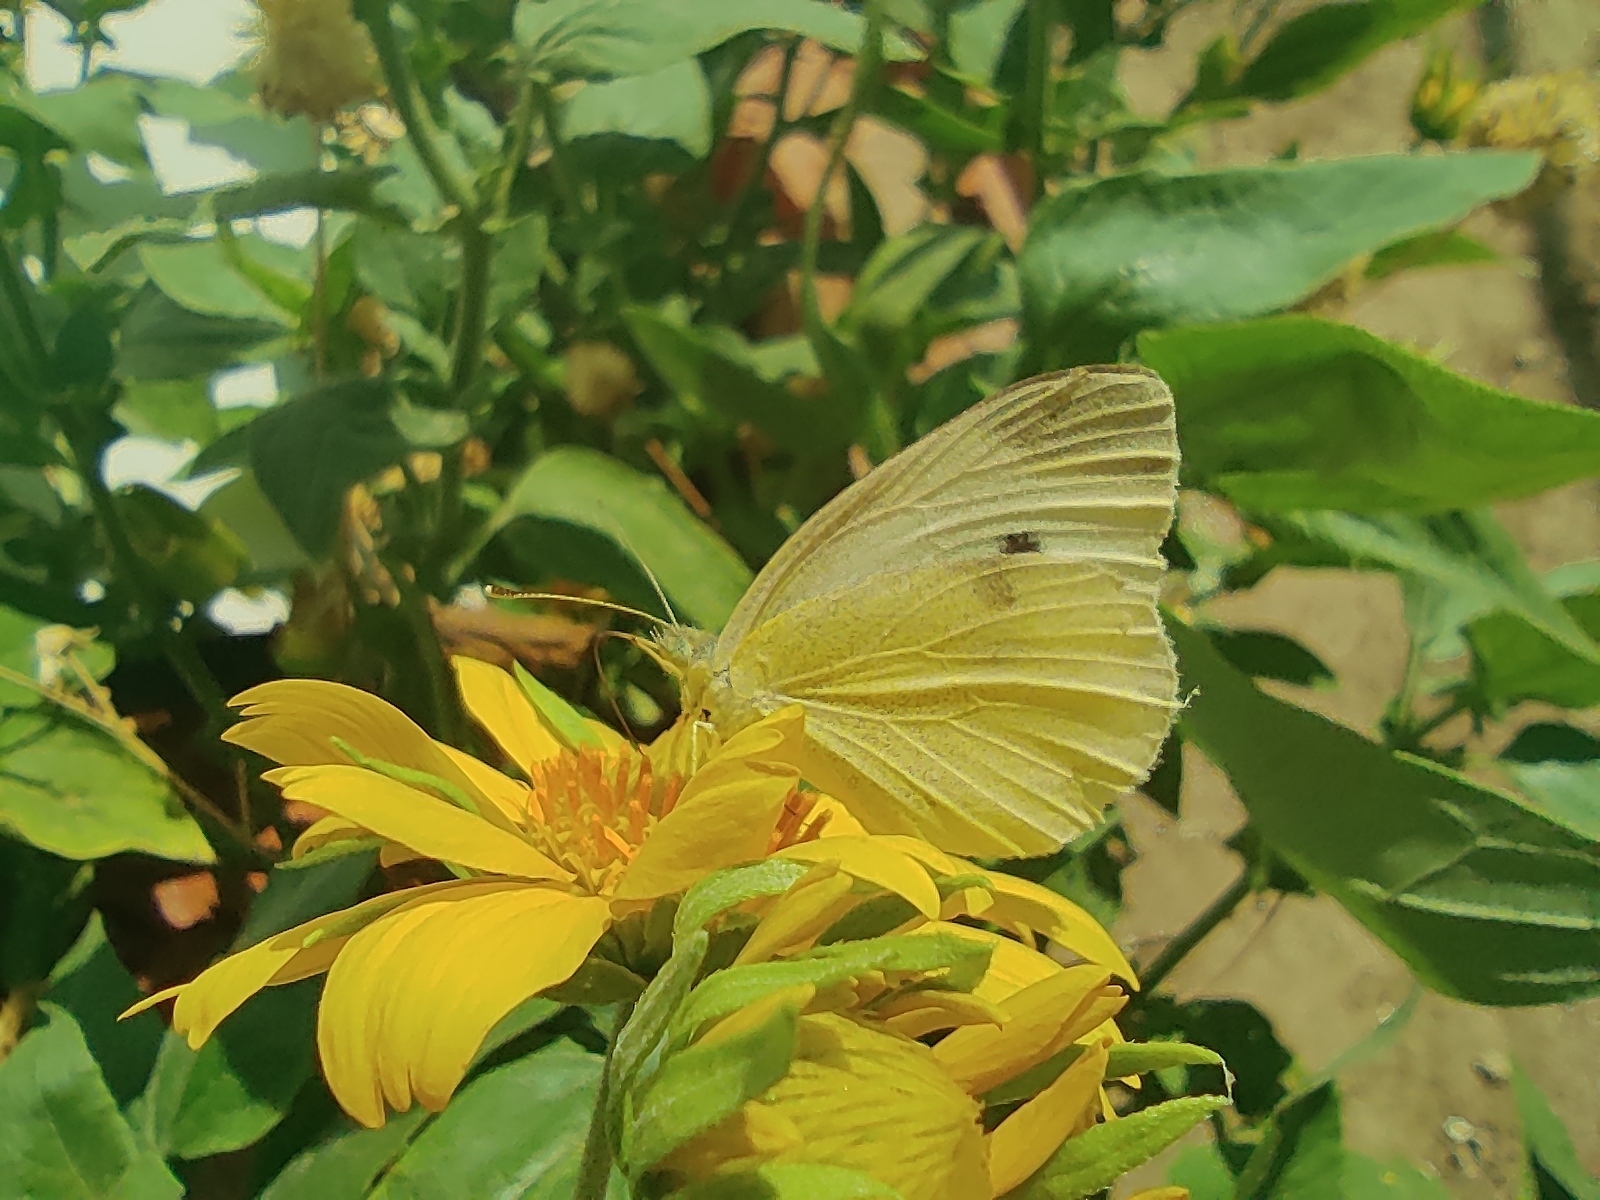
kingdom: Animalia
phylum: Arthropoda
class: Insecta
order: Lepidoptera
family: Pieridae
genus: Pieris
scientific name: Pieris rapae
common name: Small white
